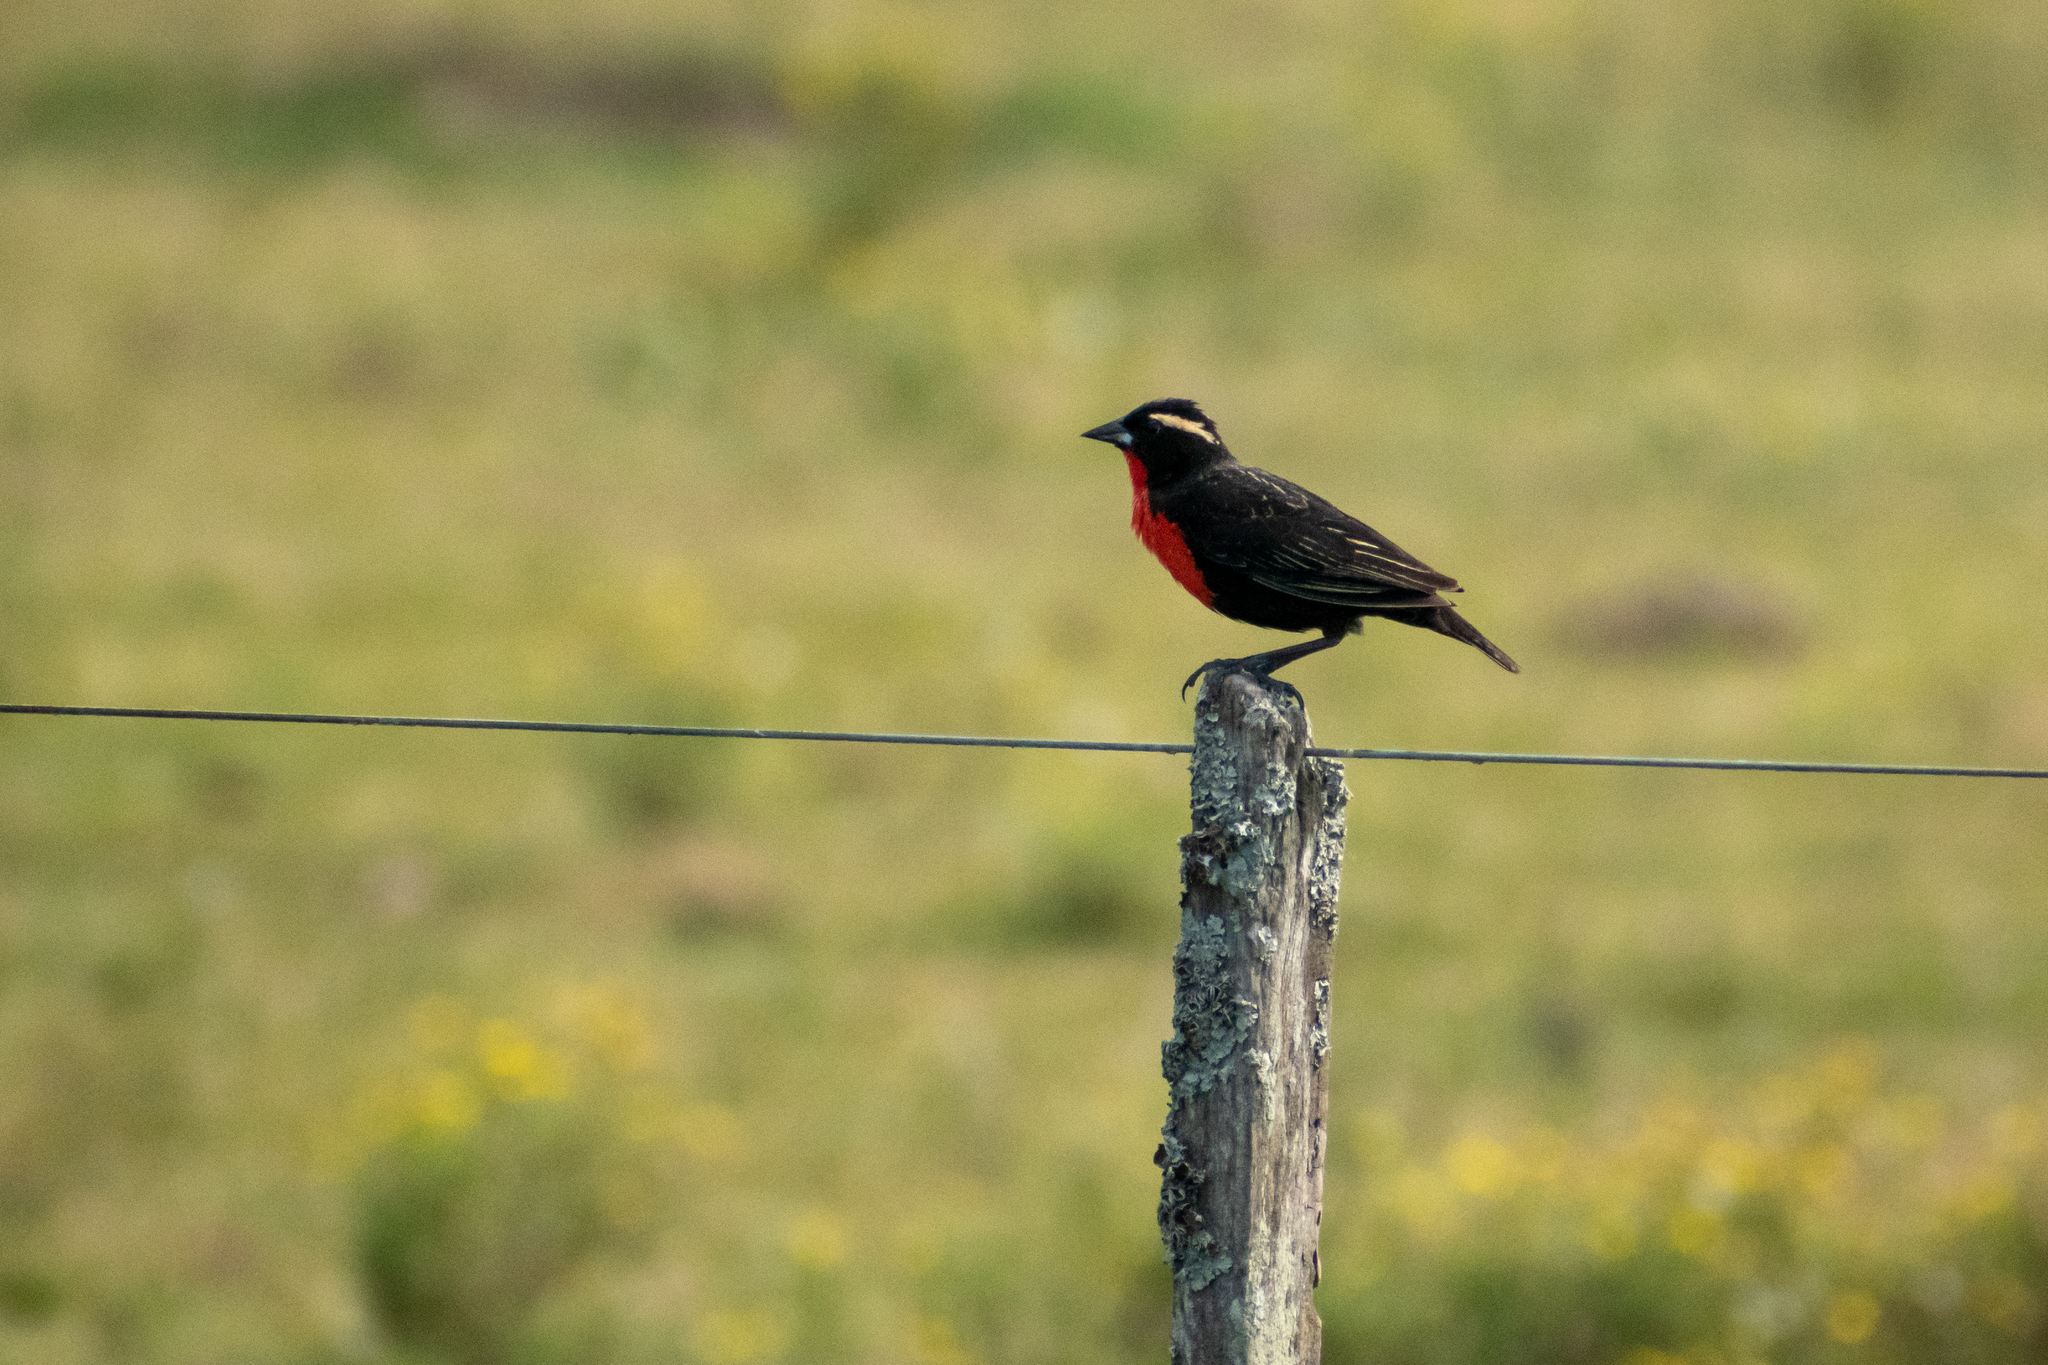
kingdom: Animalia
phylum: Chordata
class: Aves
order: Passeriformes
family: Icteridae
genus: Sturnella
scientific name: Sturnella superciliaris
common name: White-browed blackbird
